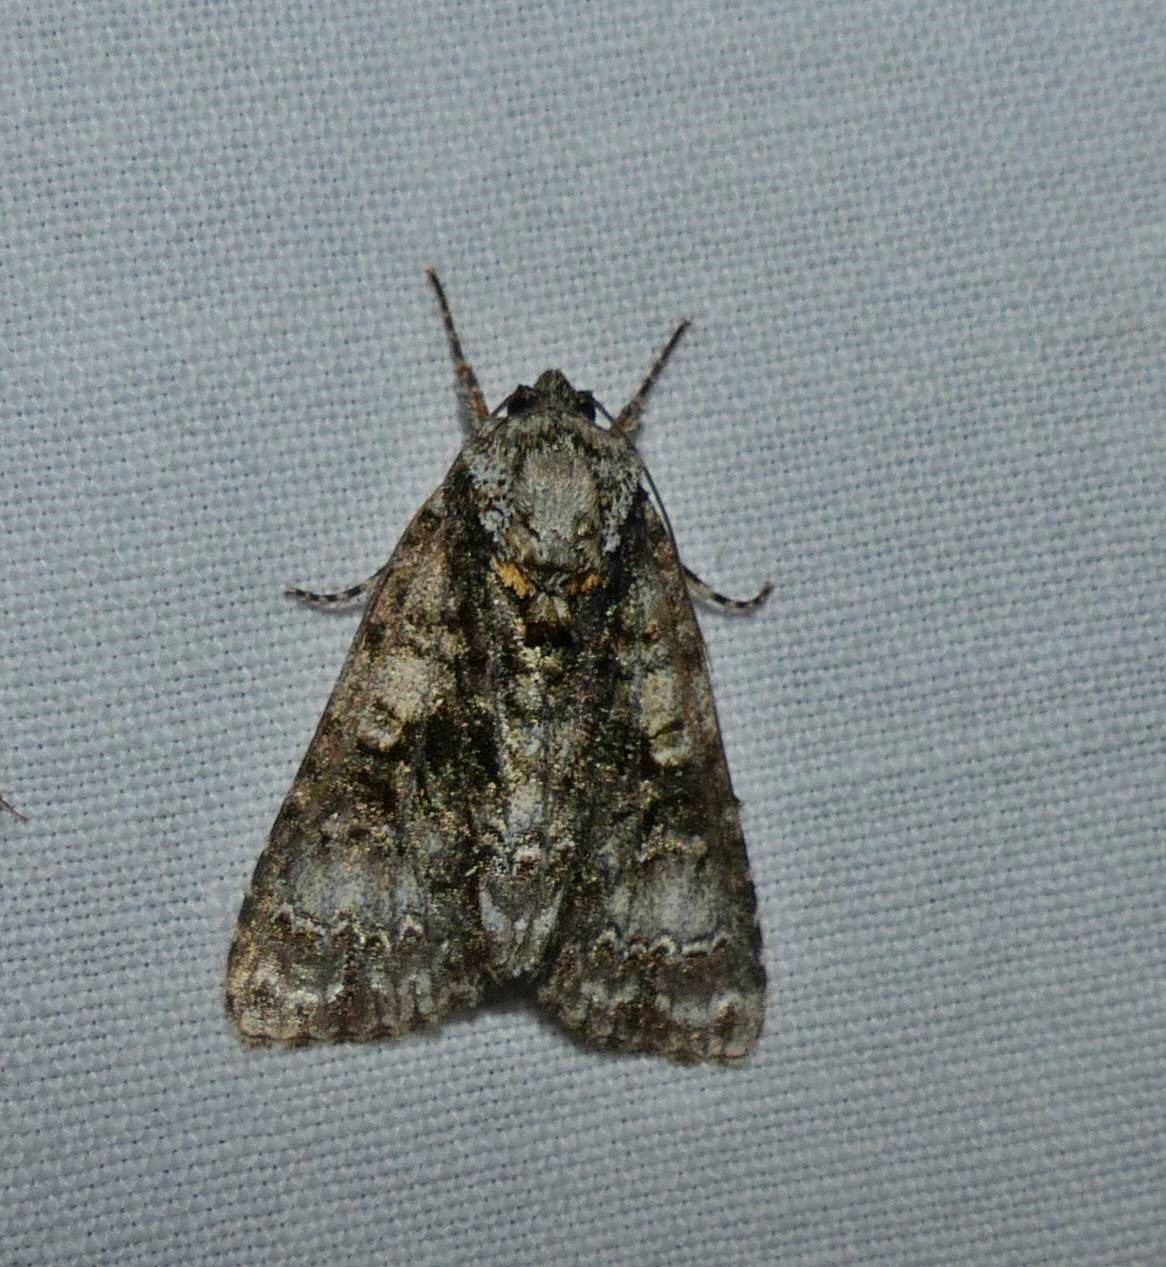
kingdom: Animalia
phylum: Arthropoda
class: Insecta
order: Lepidoptera
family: Noctuidae
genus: Acronicta
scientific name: Acronicta superans
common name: Splendid dagger
